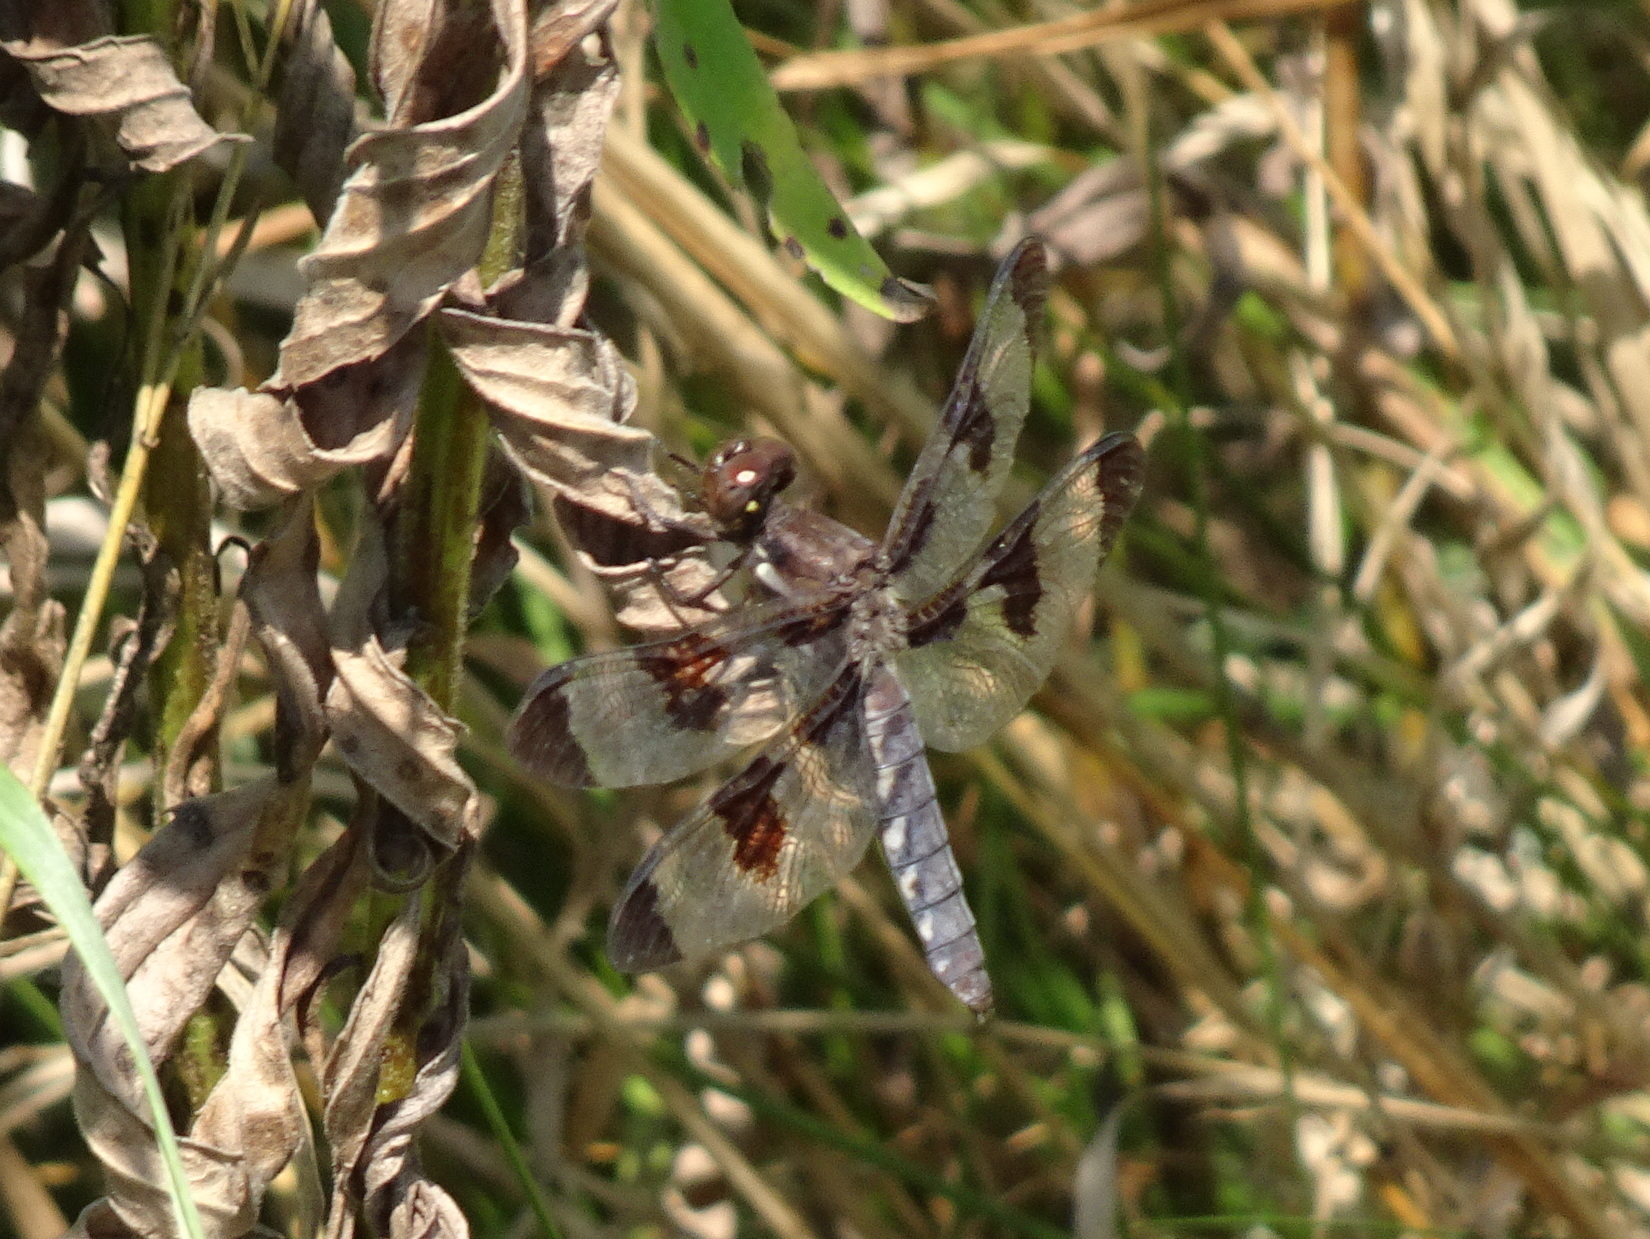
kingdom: Animalia
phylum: Arthropoda
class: Insecta
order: Odonata
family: Libellulidae
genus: Plathemis
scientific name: Plathemis lydia
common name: Common whitetail
